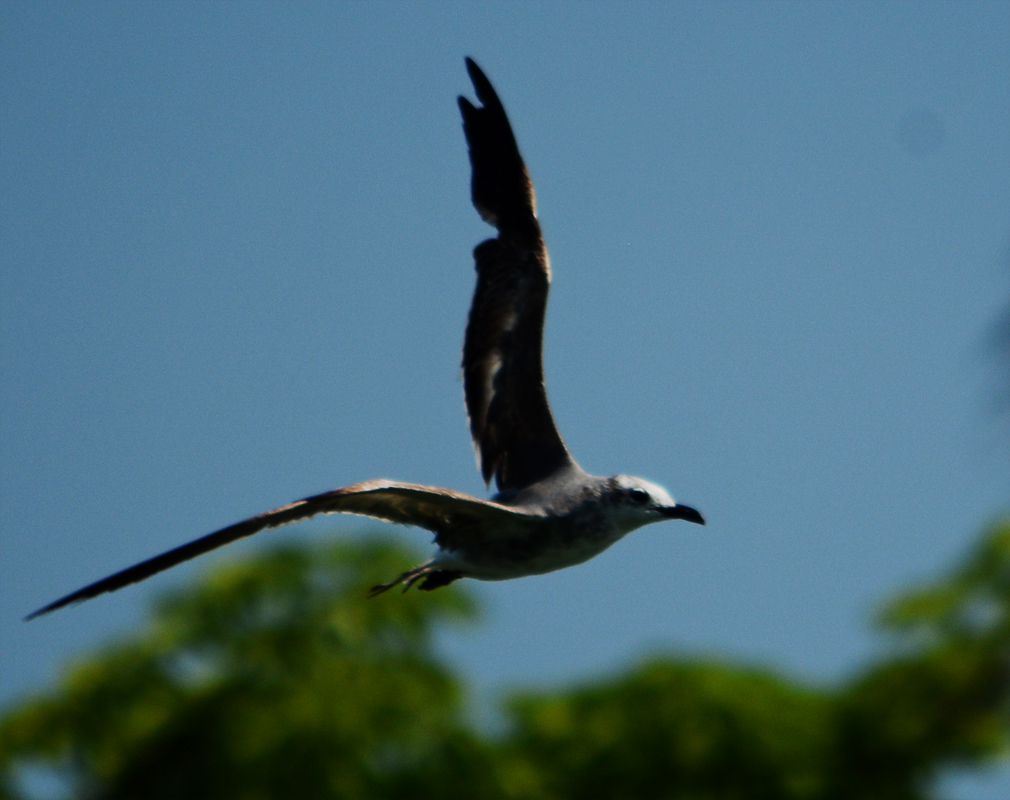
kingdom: Animalia
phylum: Chordata
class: Aves
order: Charadriiformes
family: Laridae
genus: Leucophaeus
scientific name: Leucophaeus atricilla
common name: Laughing gull
